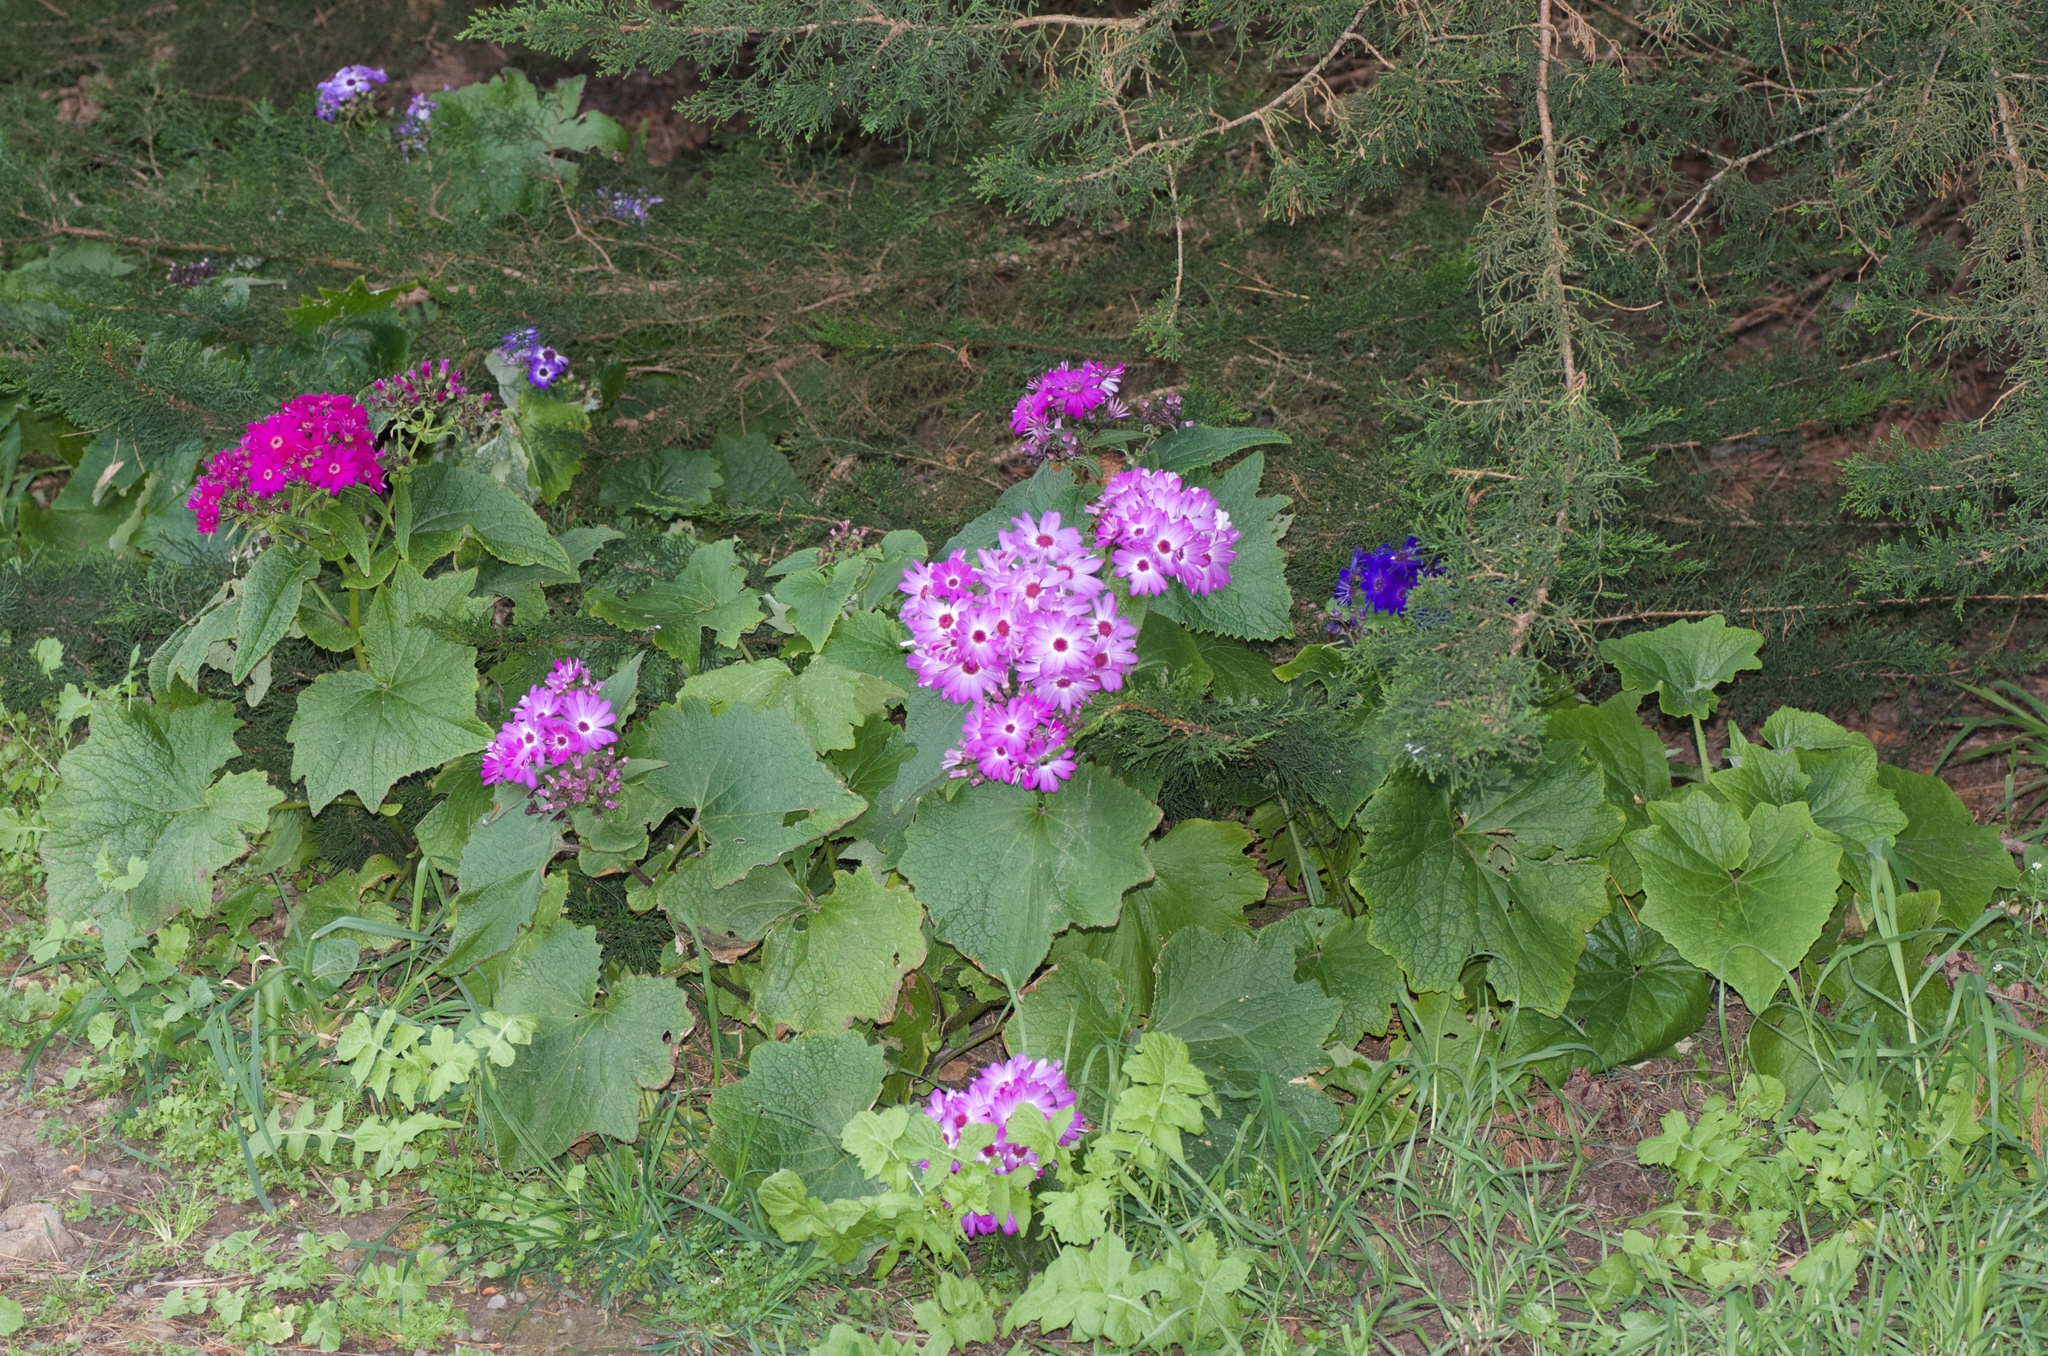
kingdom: Plantae
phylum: Tracheophyta
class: Magnoliopsida
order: Asterales
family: Asteraceae
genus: Pericallis
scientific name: Pericallis hybrida
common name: Cineraria
